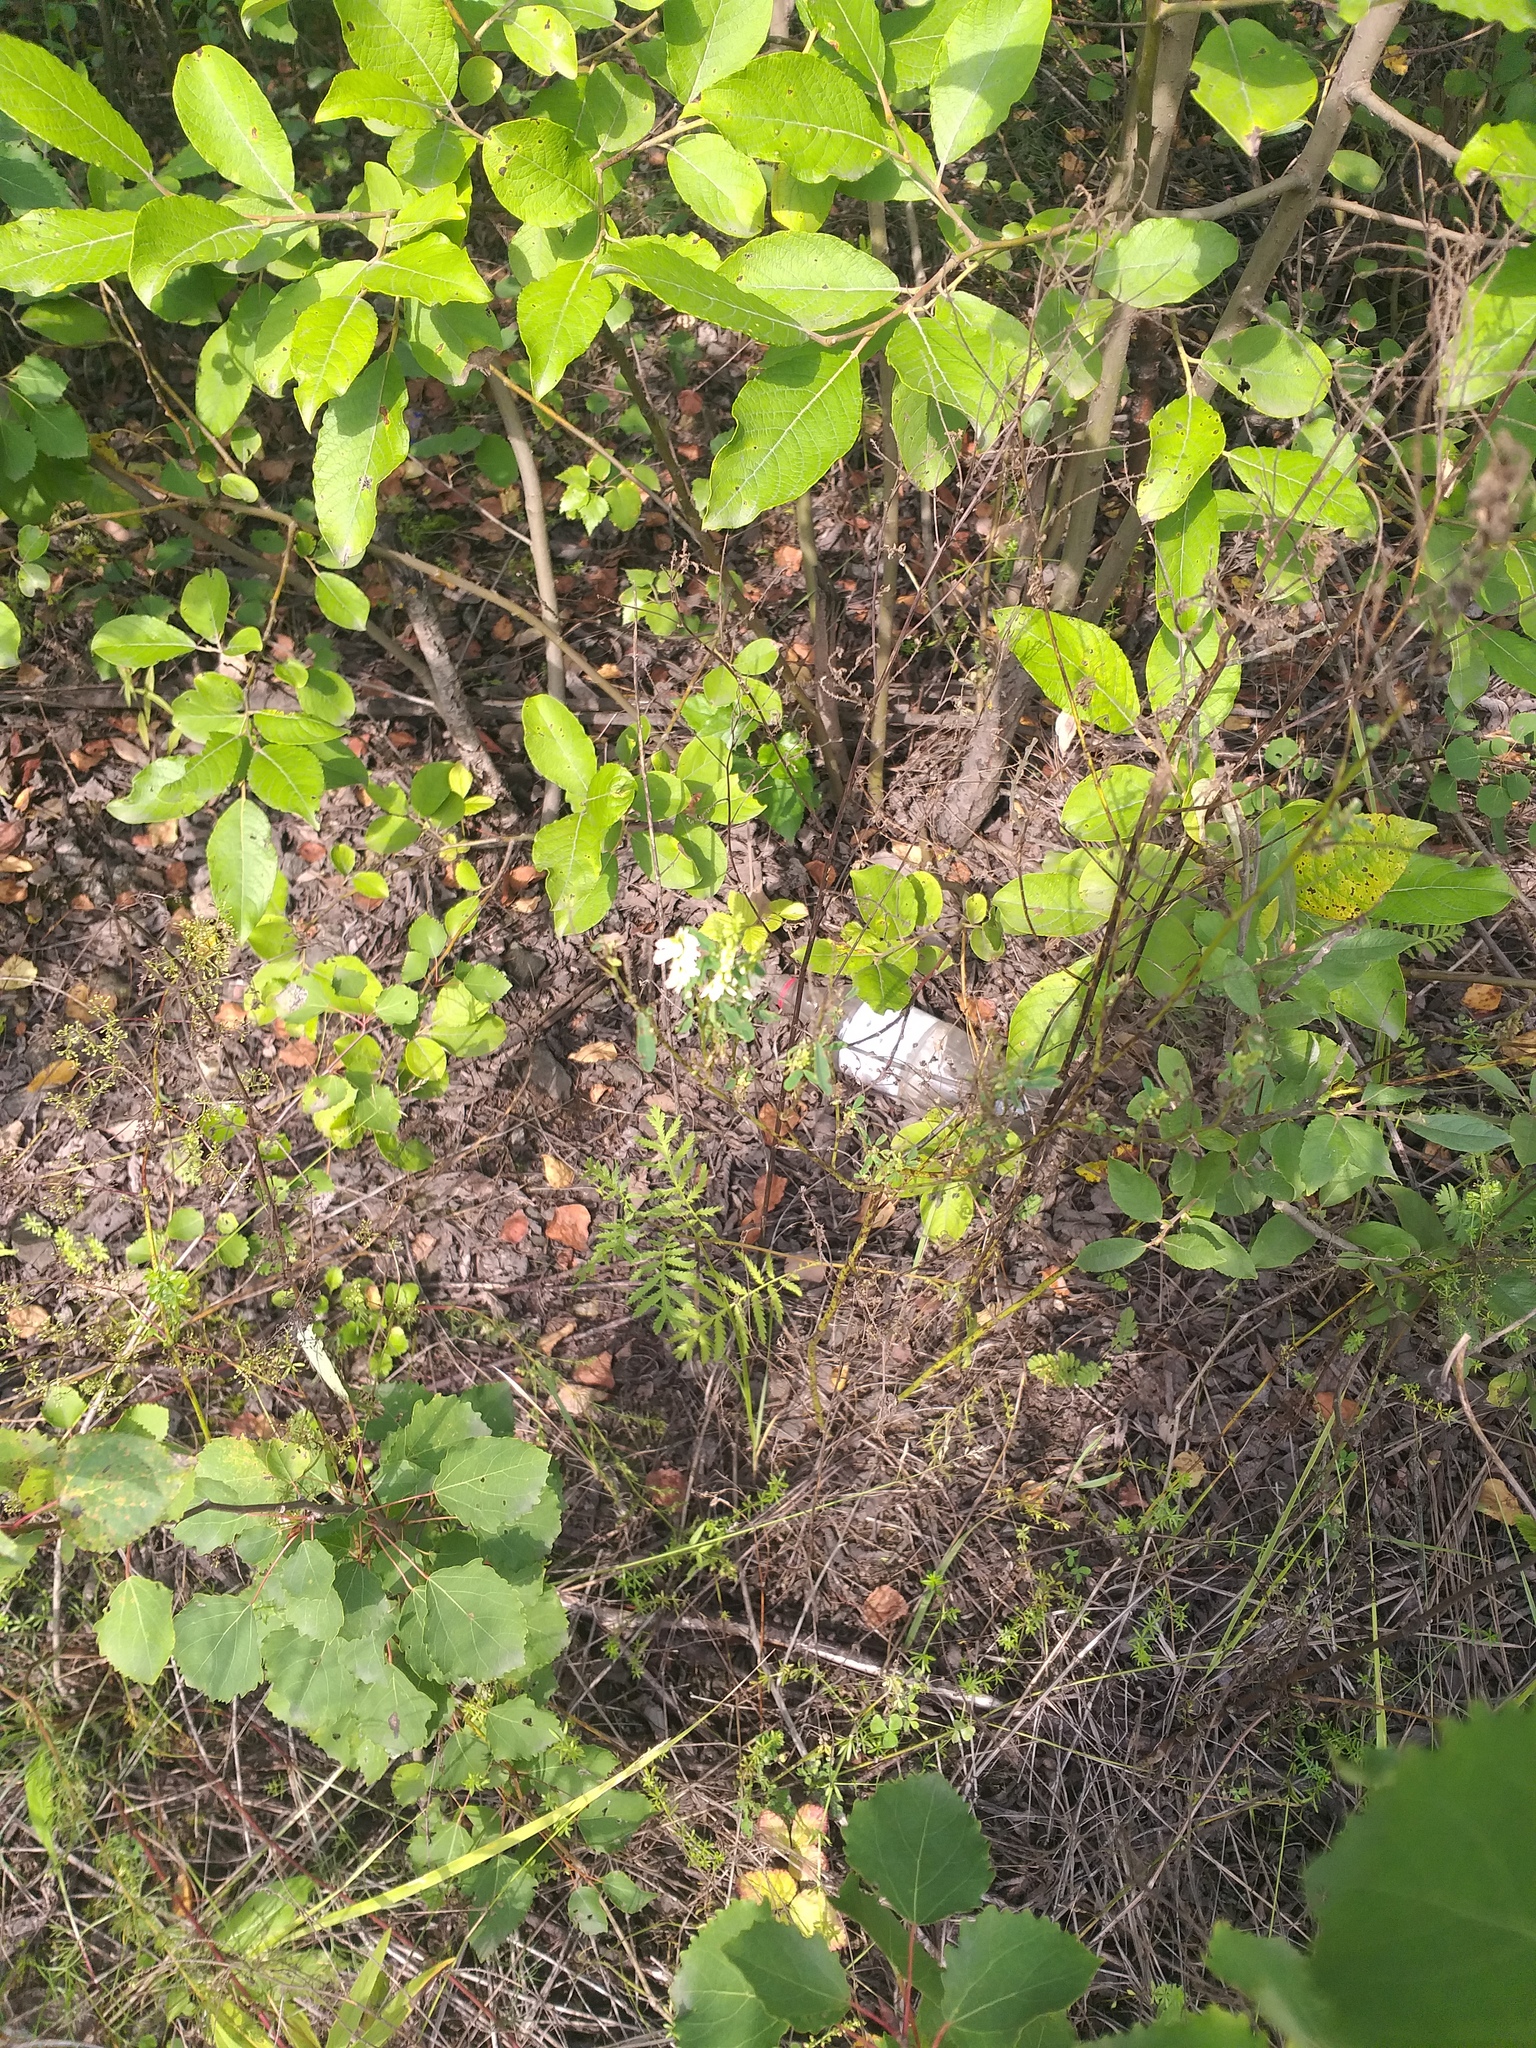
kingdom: Plantae
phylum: Tracheophyta
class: Magnoliopsida
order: Fabales
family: Fabaceae
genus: Melilotus
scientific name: Melilotus albus
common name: White melilot
